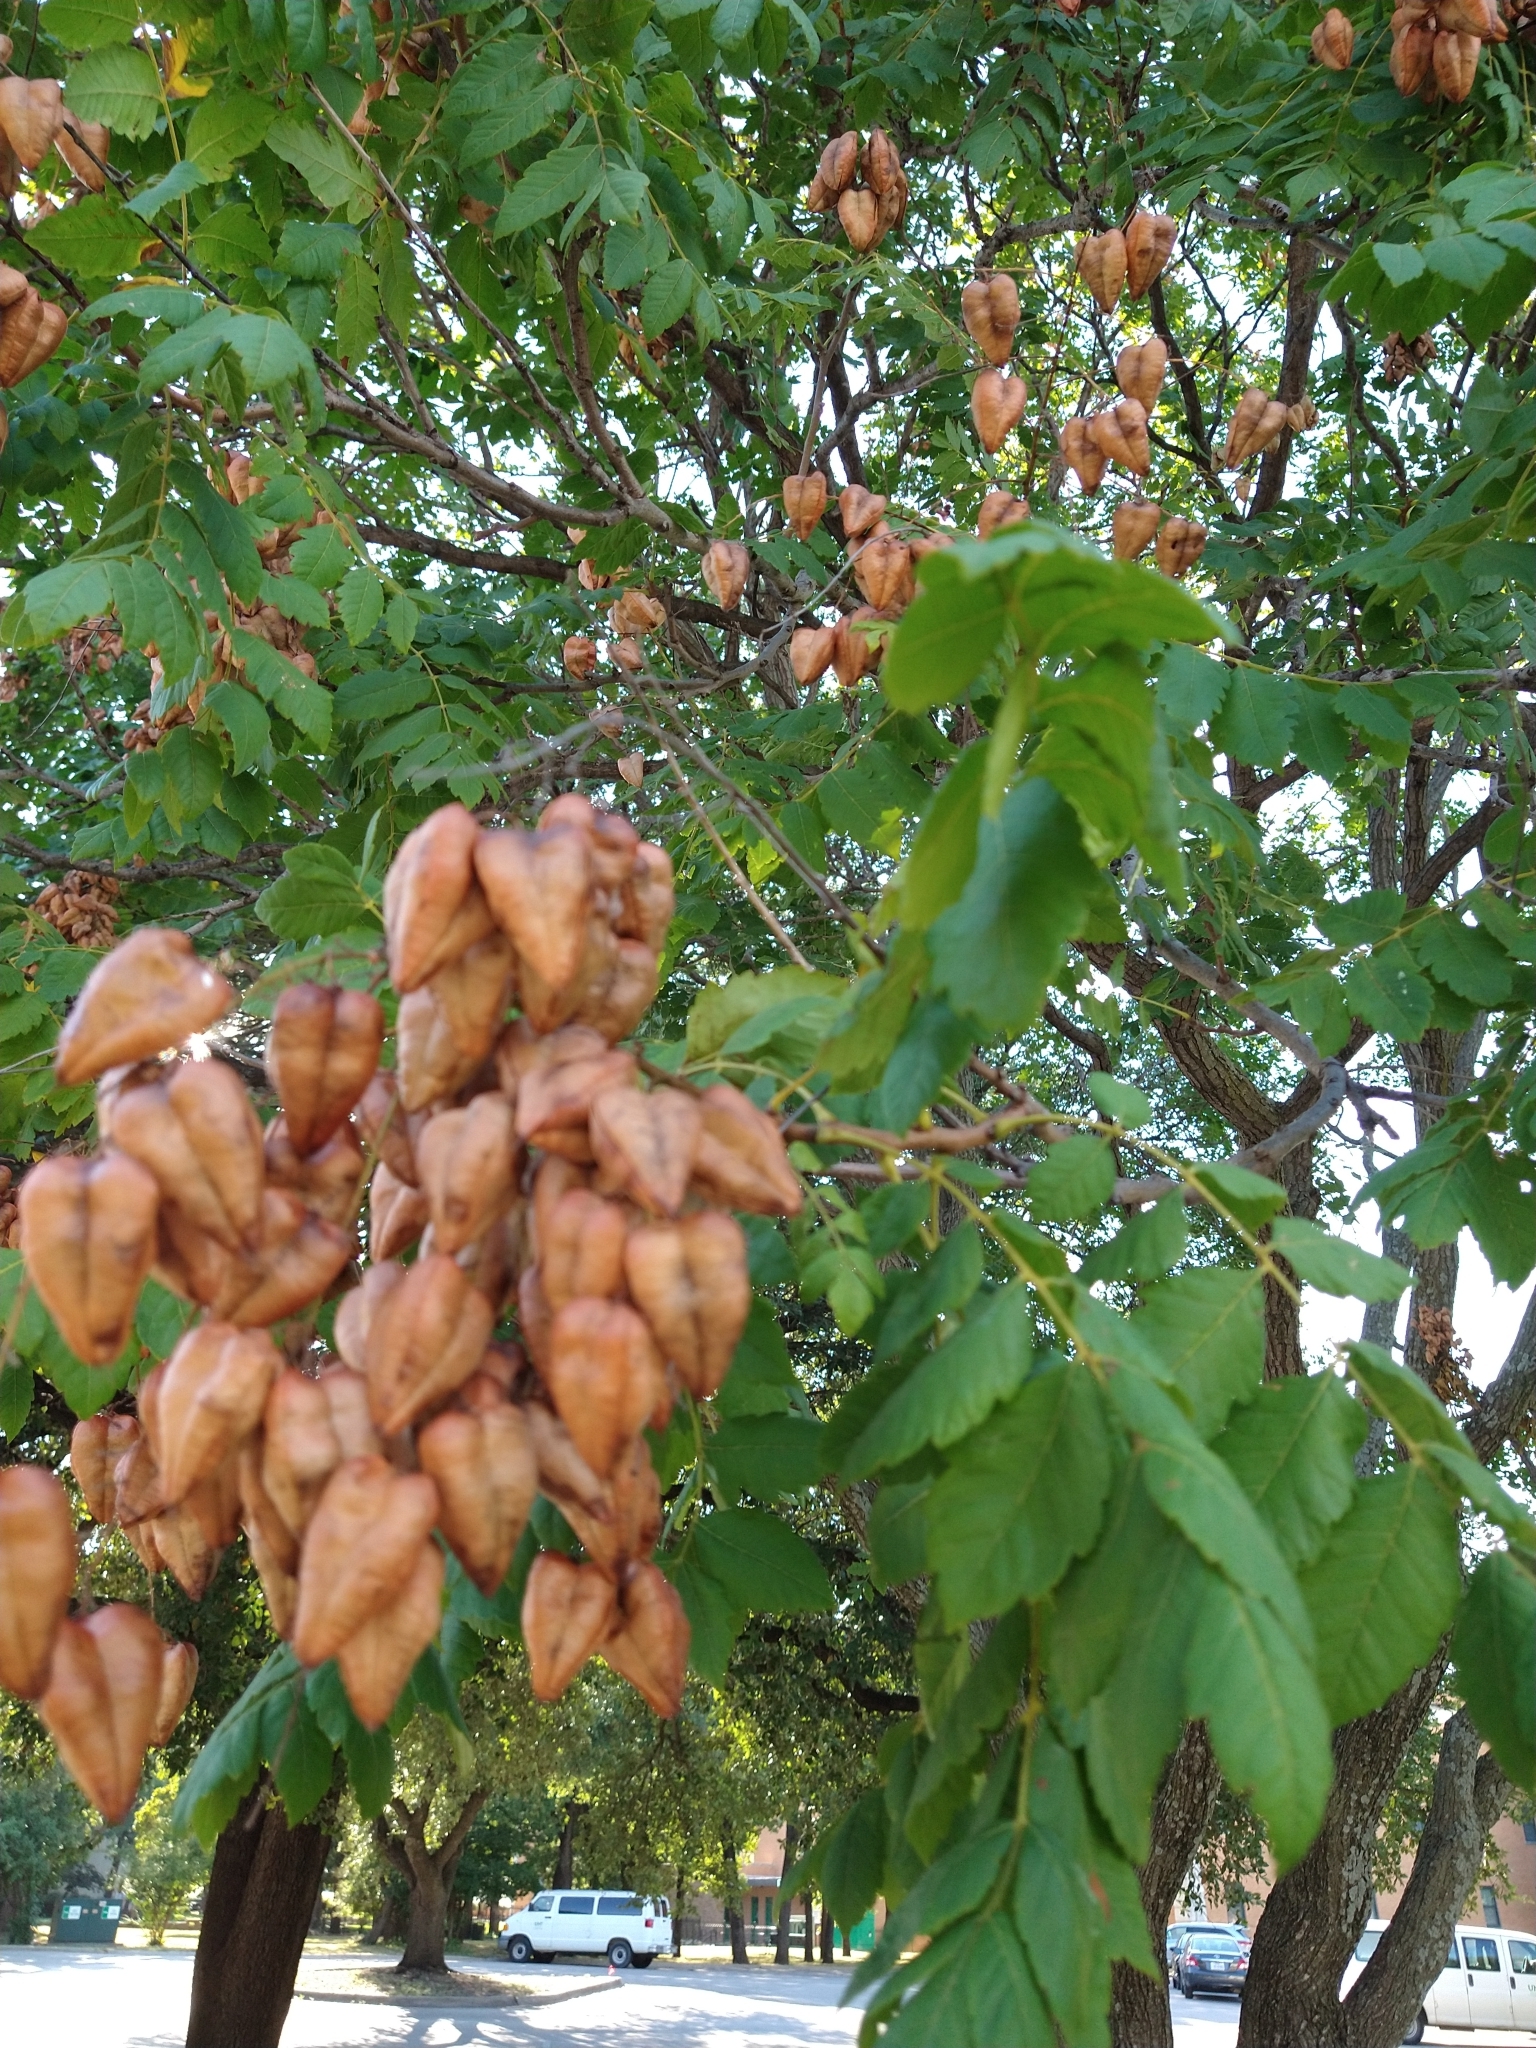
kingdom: Plantae
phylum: Tracheophyta
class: Magnoliopsida
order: Sapindales
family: Sapindaceae
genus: Koelreuteria
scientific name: Koelreuteria paniculata
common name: Pride-of-india
